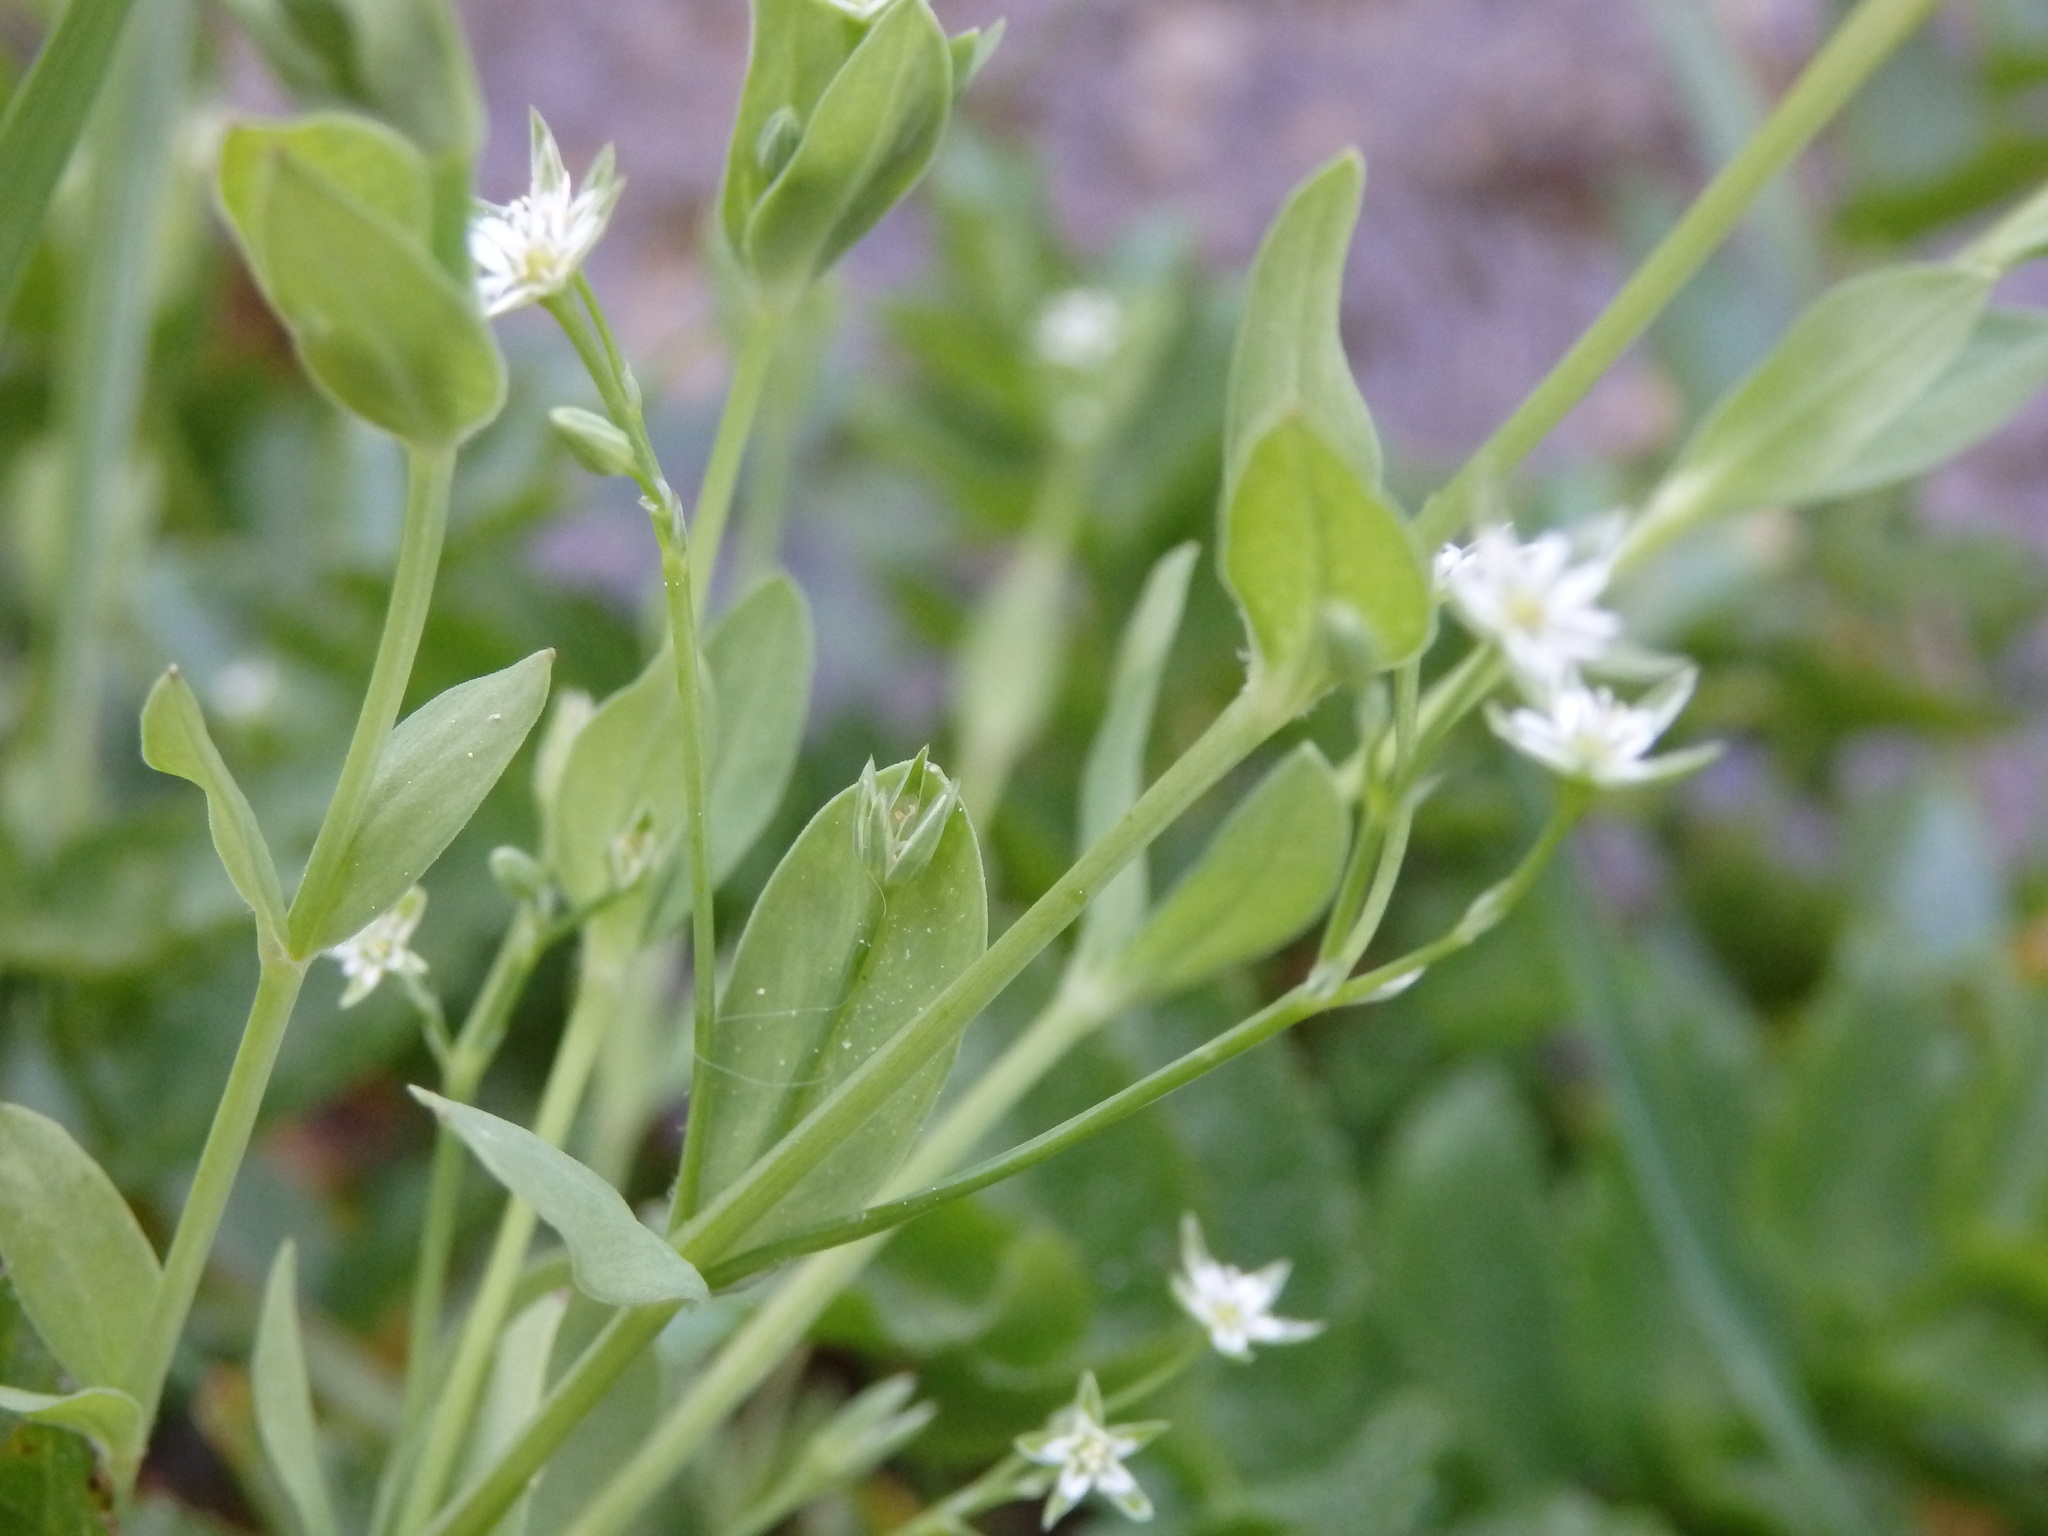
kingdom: Plantae
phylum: Tracheophyta
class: Magnoliopsida
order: Caryophyllales
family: Caryophyllaceae
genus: Stellaria
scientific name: Stellaria alsine
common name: Bog stitchwort
